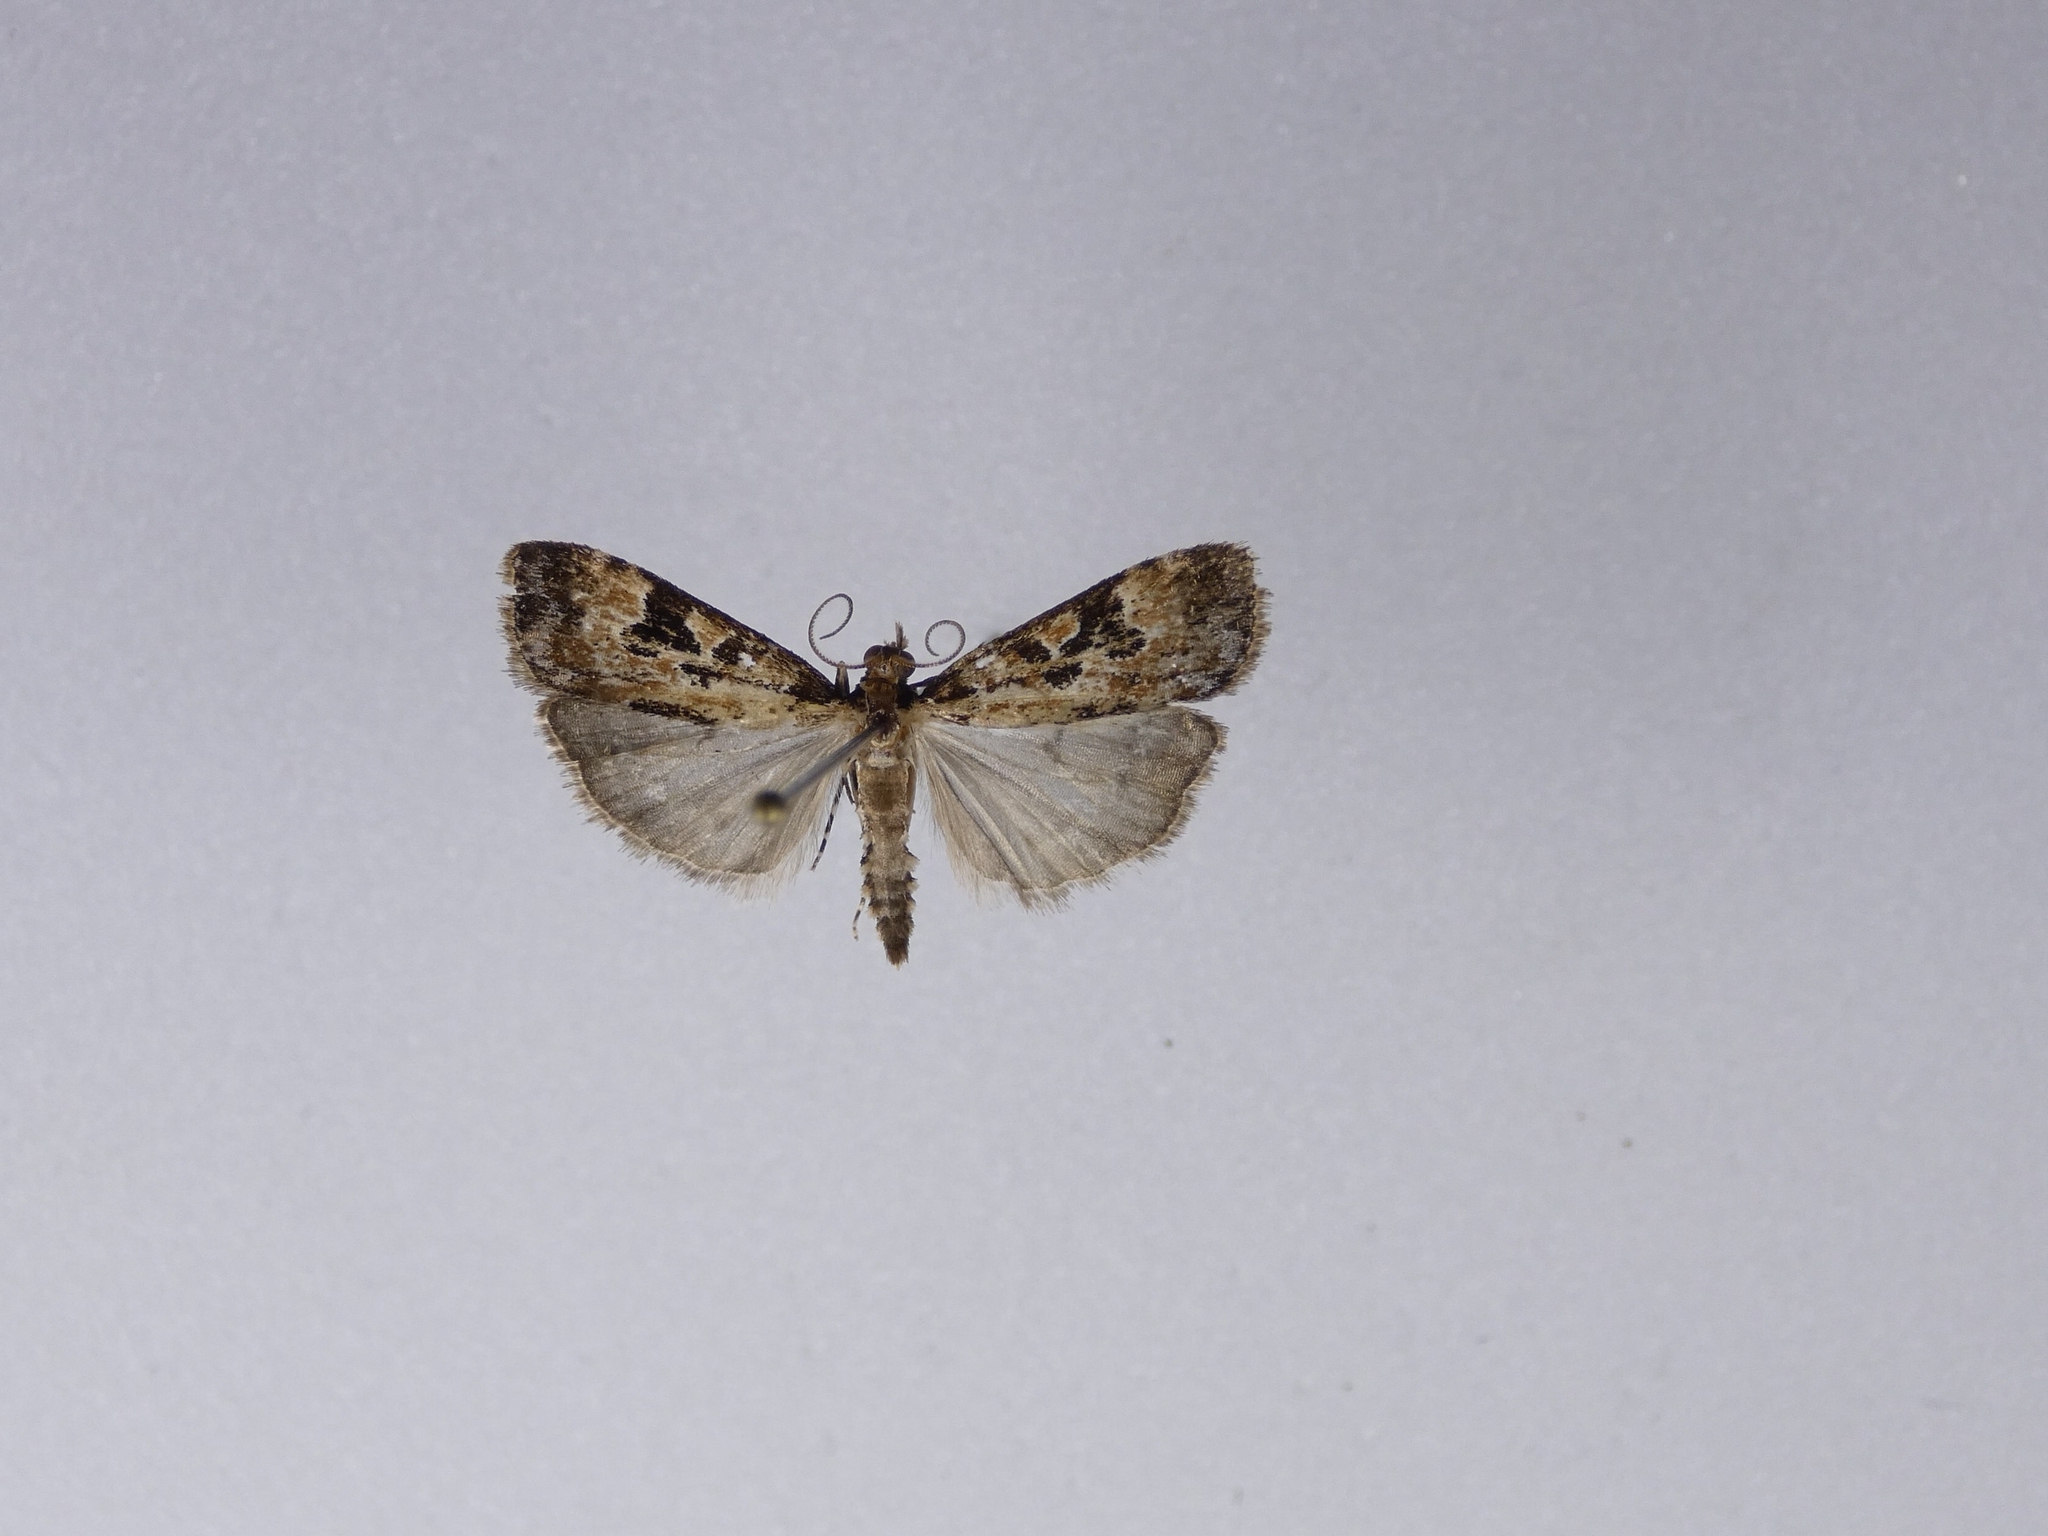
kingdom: Animalia
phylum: Arthropoda
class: Insecta
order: Lepidoptera
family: Crambidae
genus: Scoparia
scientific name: Scoparia ustimacula
